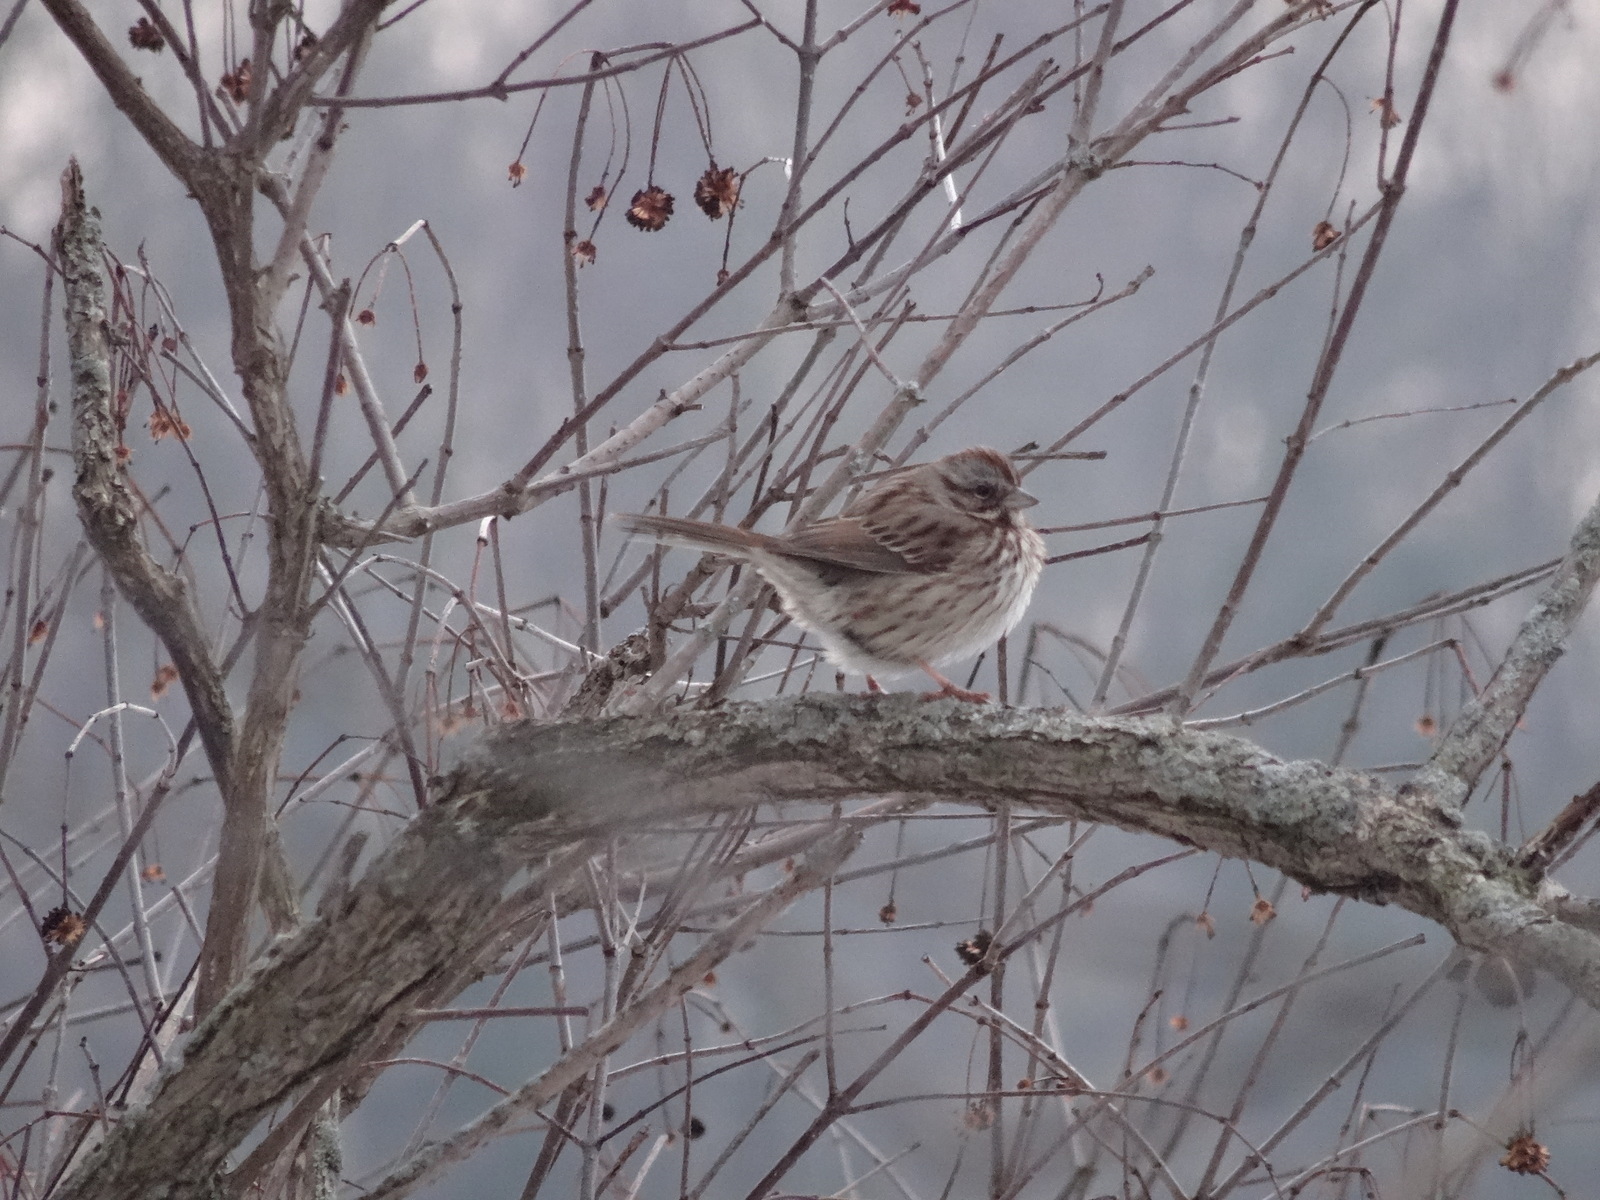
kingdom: Animalia
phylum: Chordata
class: Aves
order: Passeriformes
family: Passerellidae
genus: Melospiza
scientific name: Melospiza melodia
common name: Song sparrow
